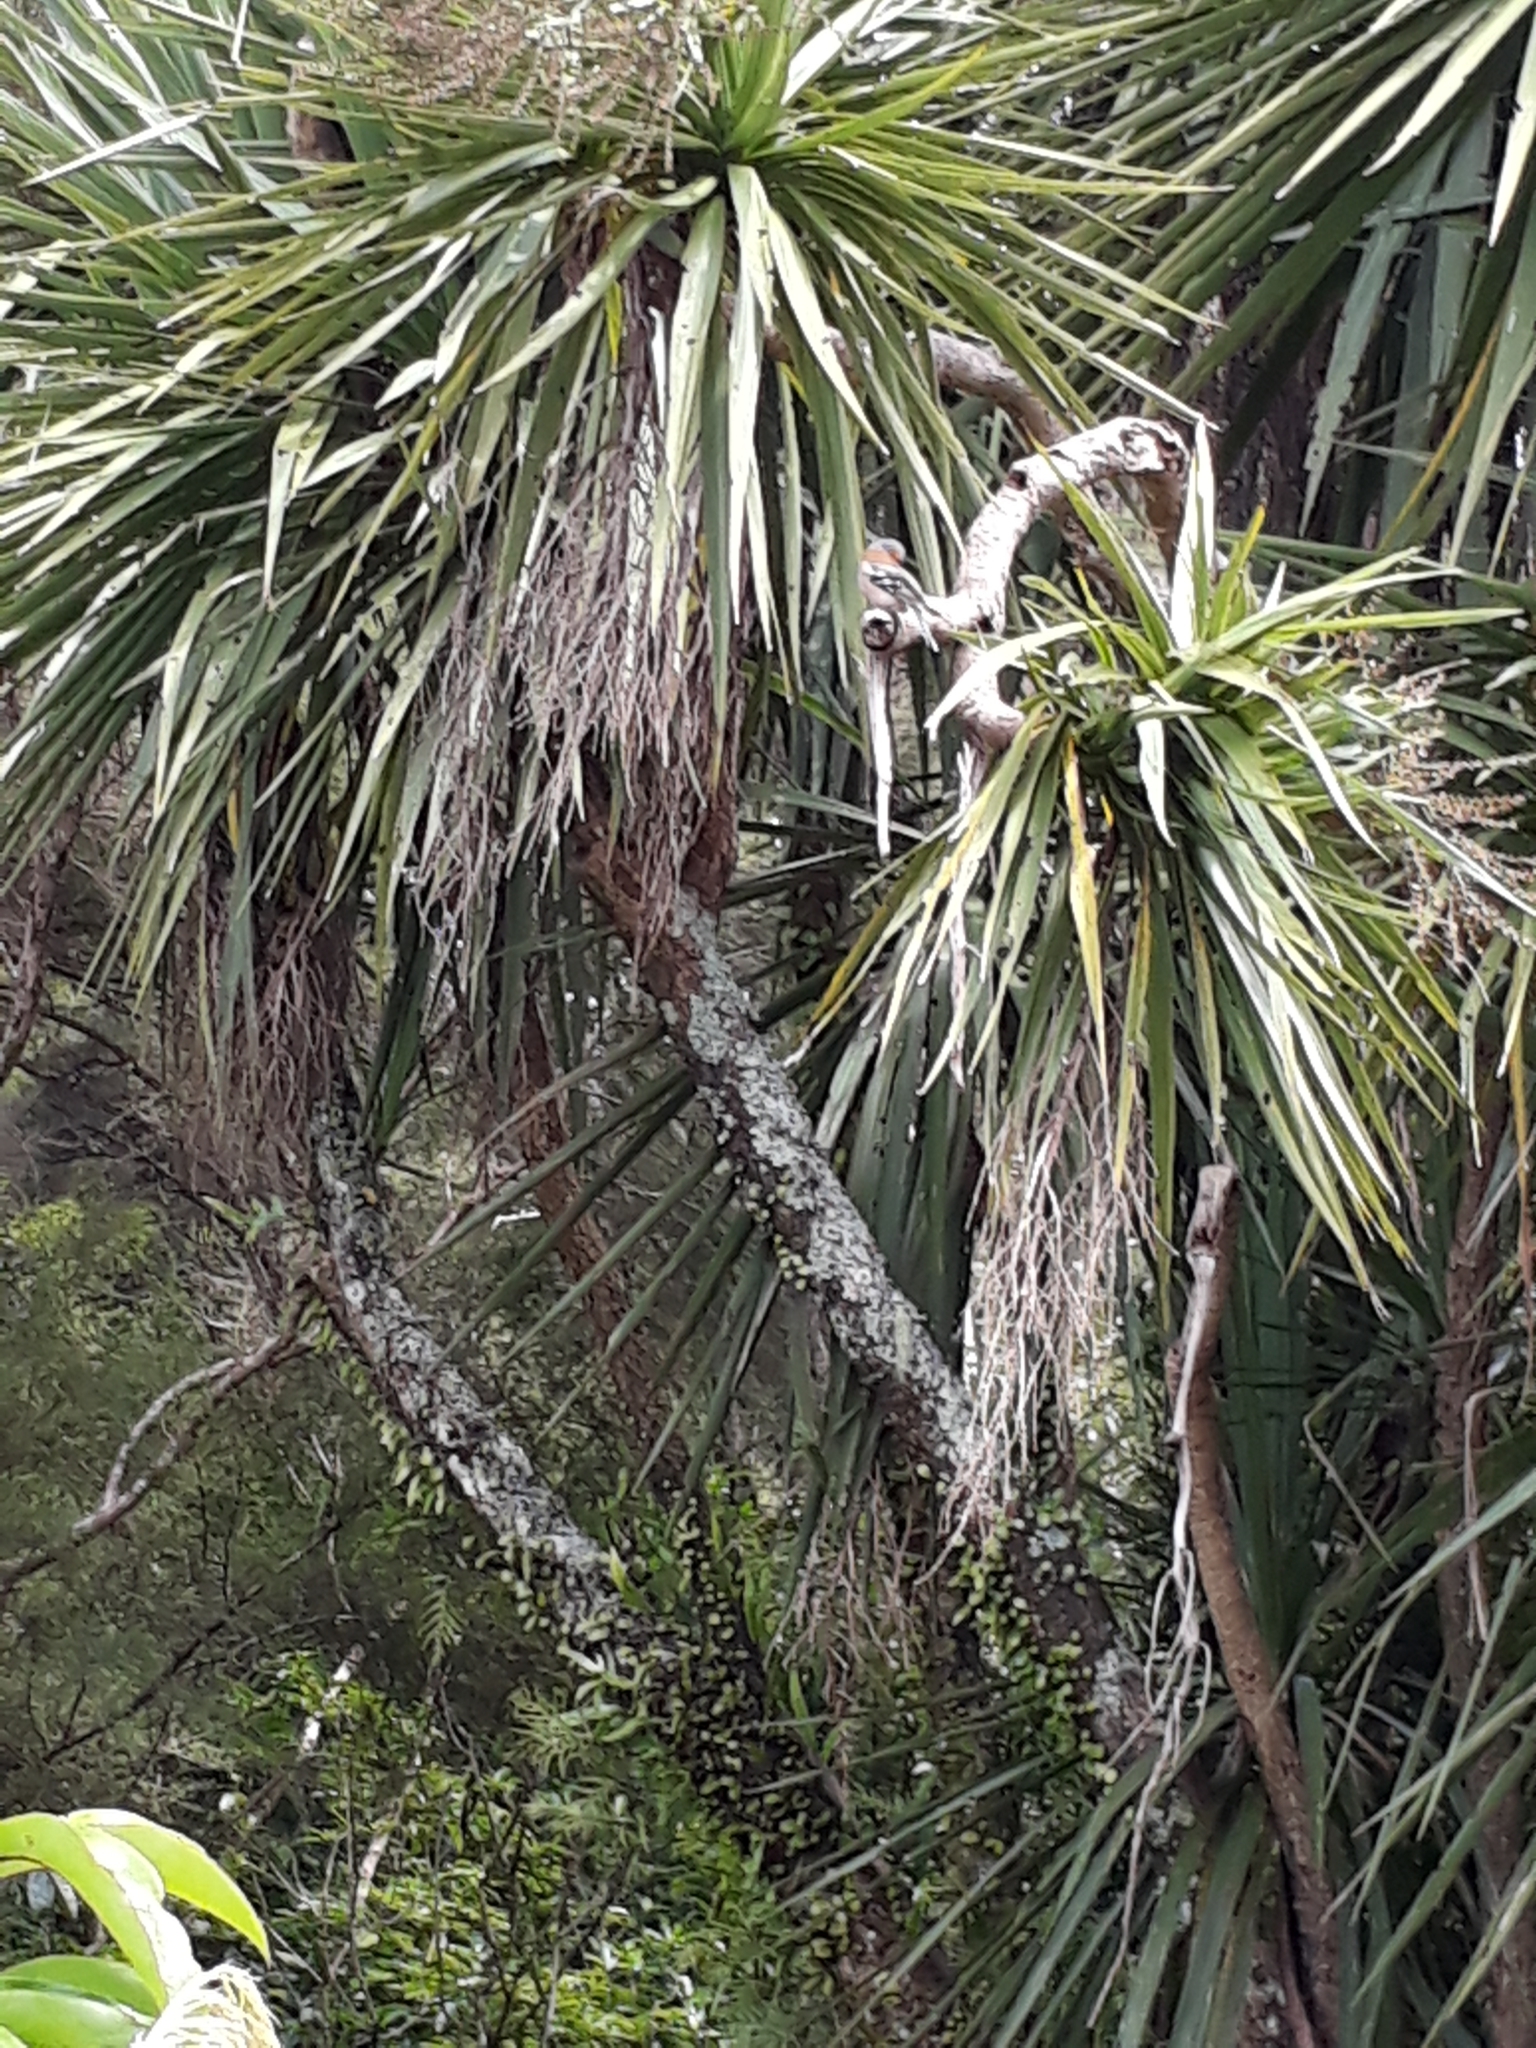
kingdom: Animalia
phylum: Chordata
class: Aves
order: Passeriformes
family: Fringillidae
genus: Fringilla
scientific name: Fringilla coelebs
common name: Common chaffinch
